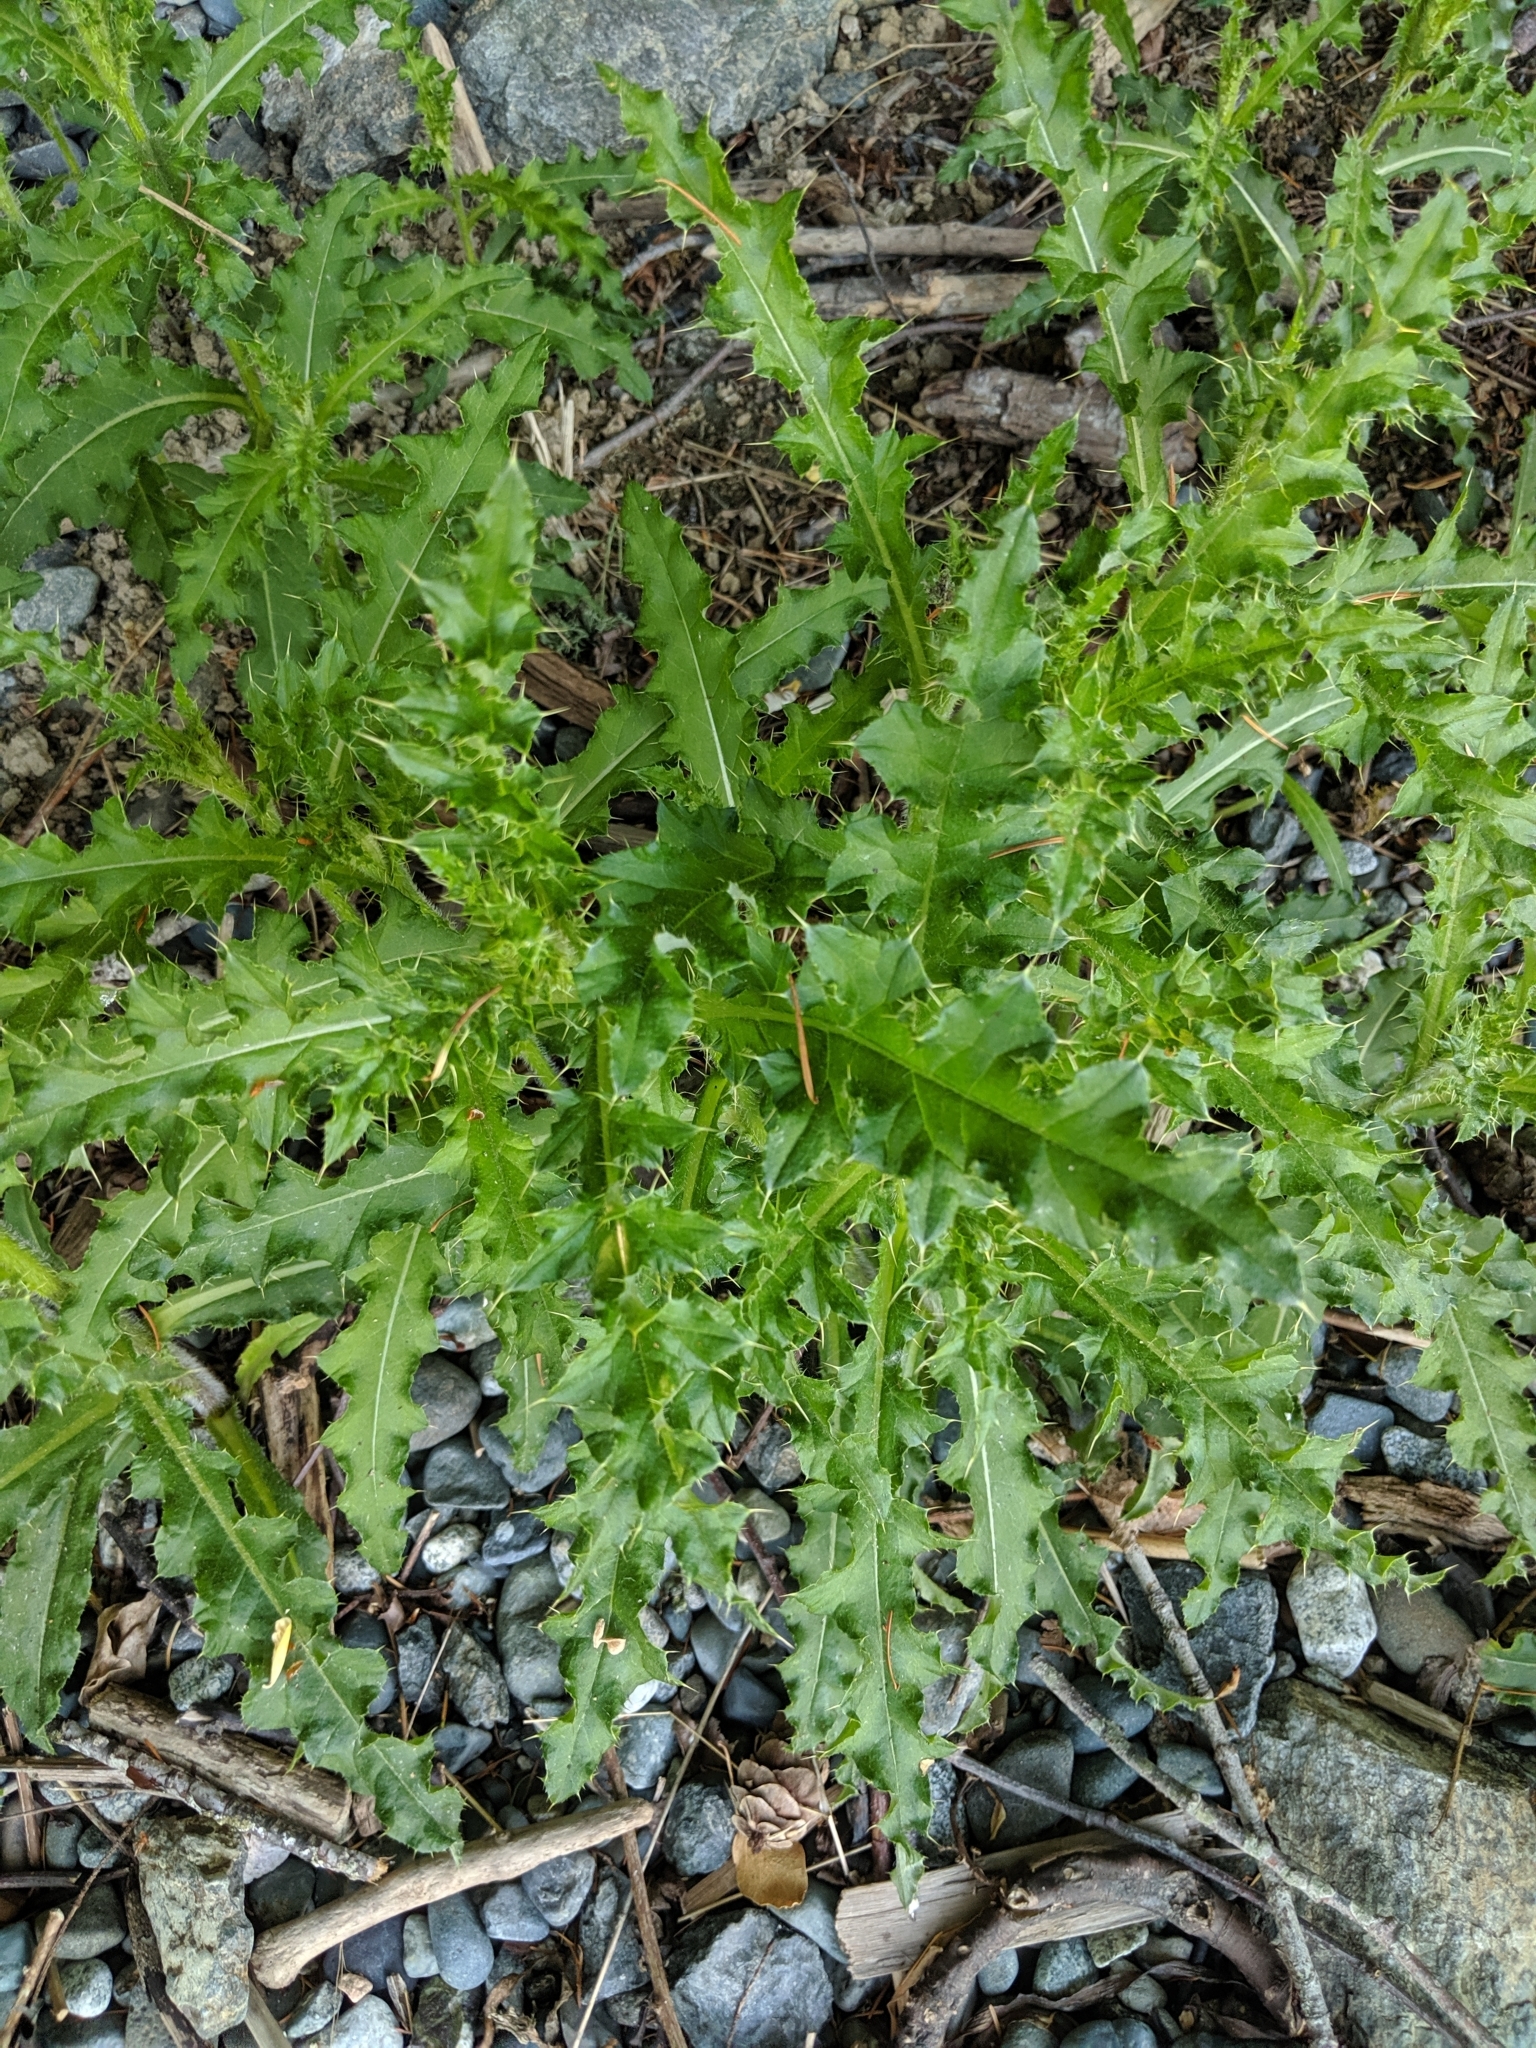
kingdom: Plantae
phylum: Tracheophyta
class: Magnoliopsida
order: Asterales
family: Asteraceae
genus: Cirsium
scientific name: Cirsium arvense
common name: Creeping thistle
